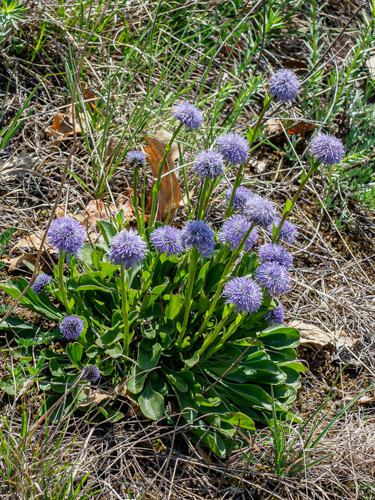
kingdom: Plantae
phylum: Tracheophyta
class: Magnoliopsida
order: Lamiales
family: Plantaginaceae
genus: Globularia
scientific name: Globularia bisnagarica
